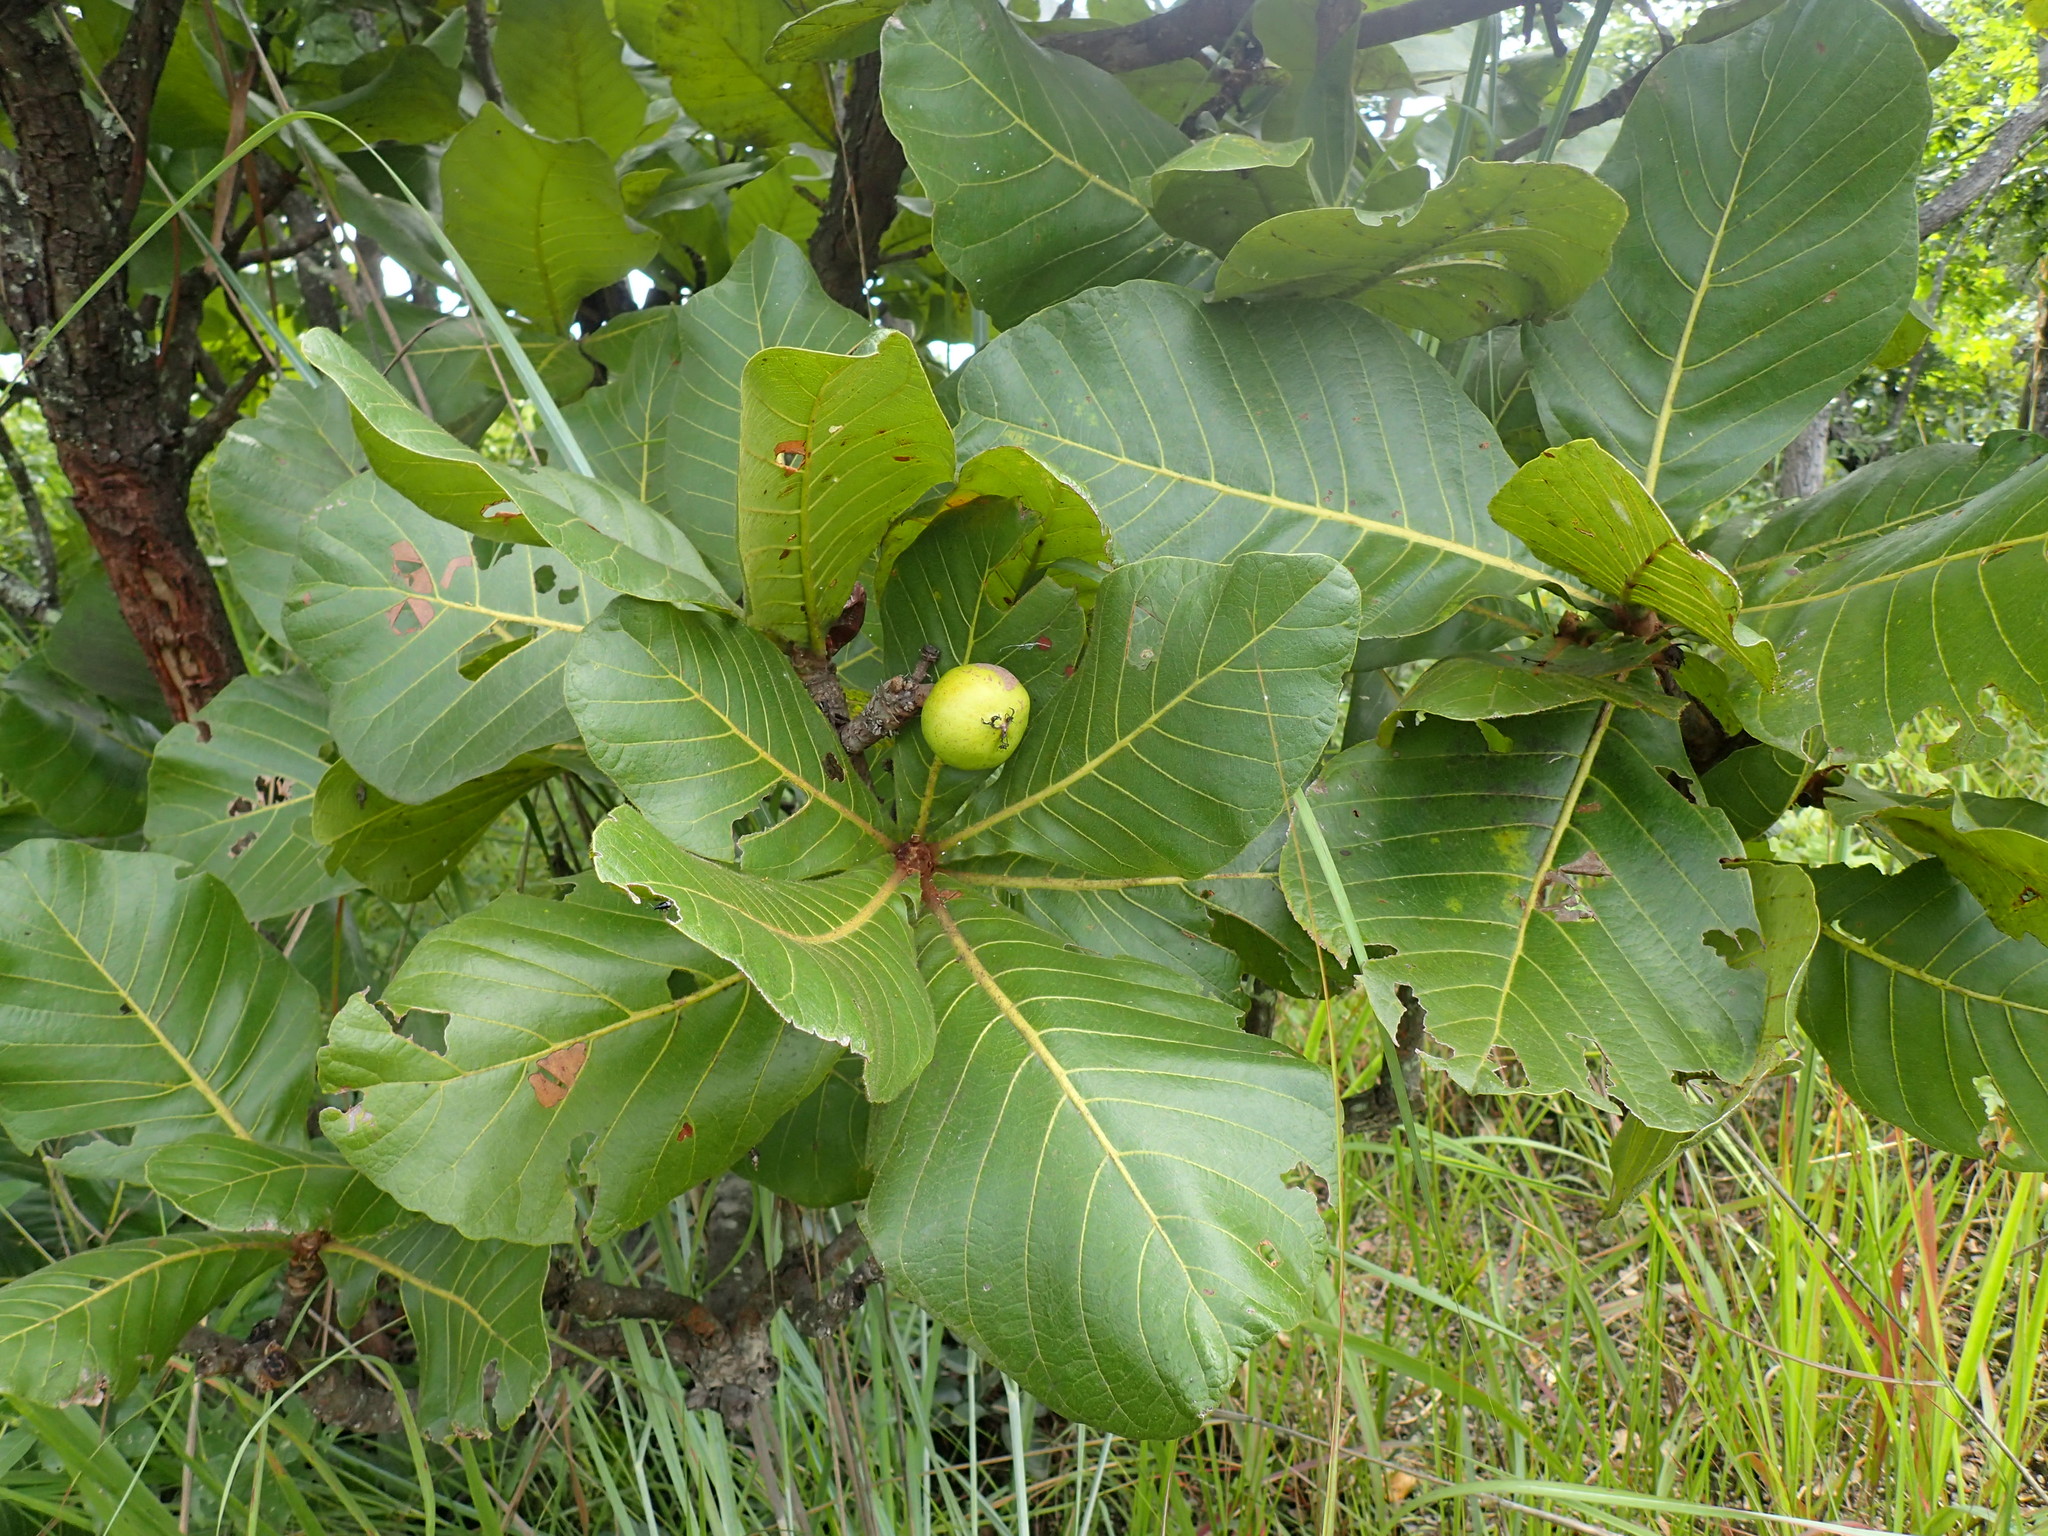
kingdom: Plantae
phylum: Tracheophyta
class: Magnoliopsida
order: Malpighiales
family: Phyllanthaceae
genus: Uapaca
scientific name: Uapaca kirkiana
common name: Wild loquat
